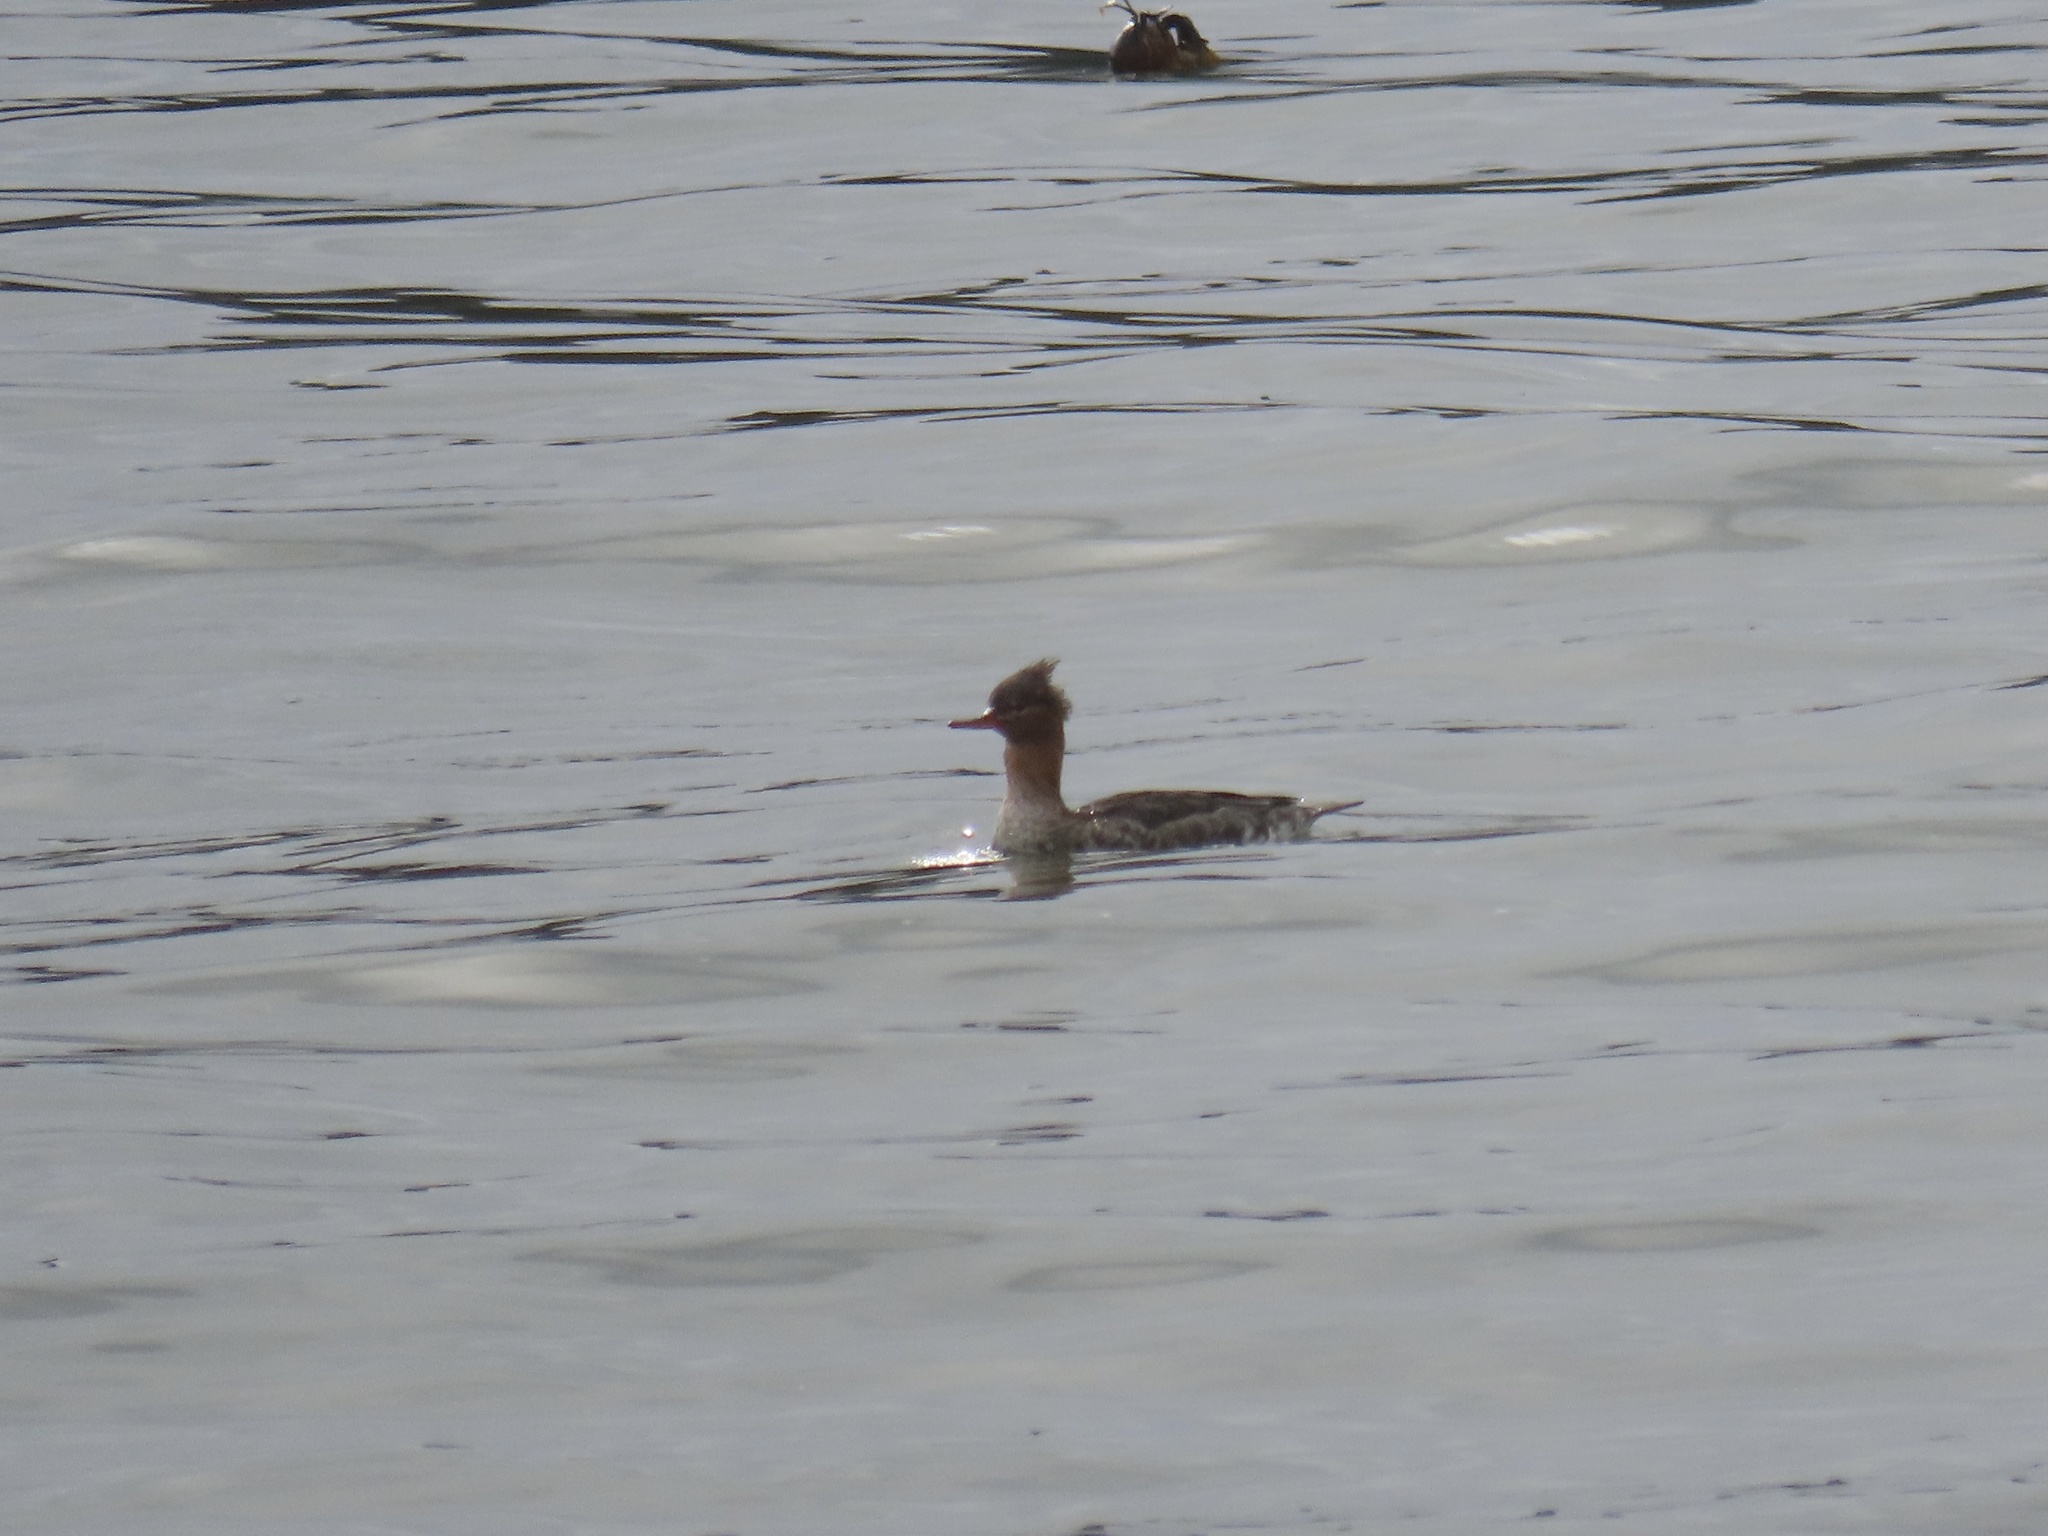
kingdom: Animalia
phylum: Chordata
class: Aves
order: Anseriformes
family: Anatidae
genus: Mergus
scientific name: Mergus serrator
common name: Red-breasted merganser
